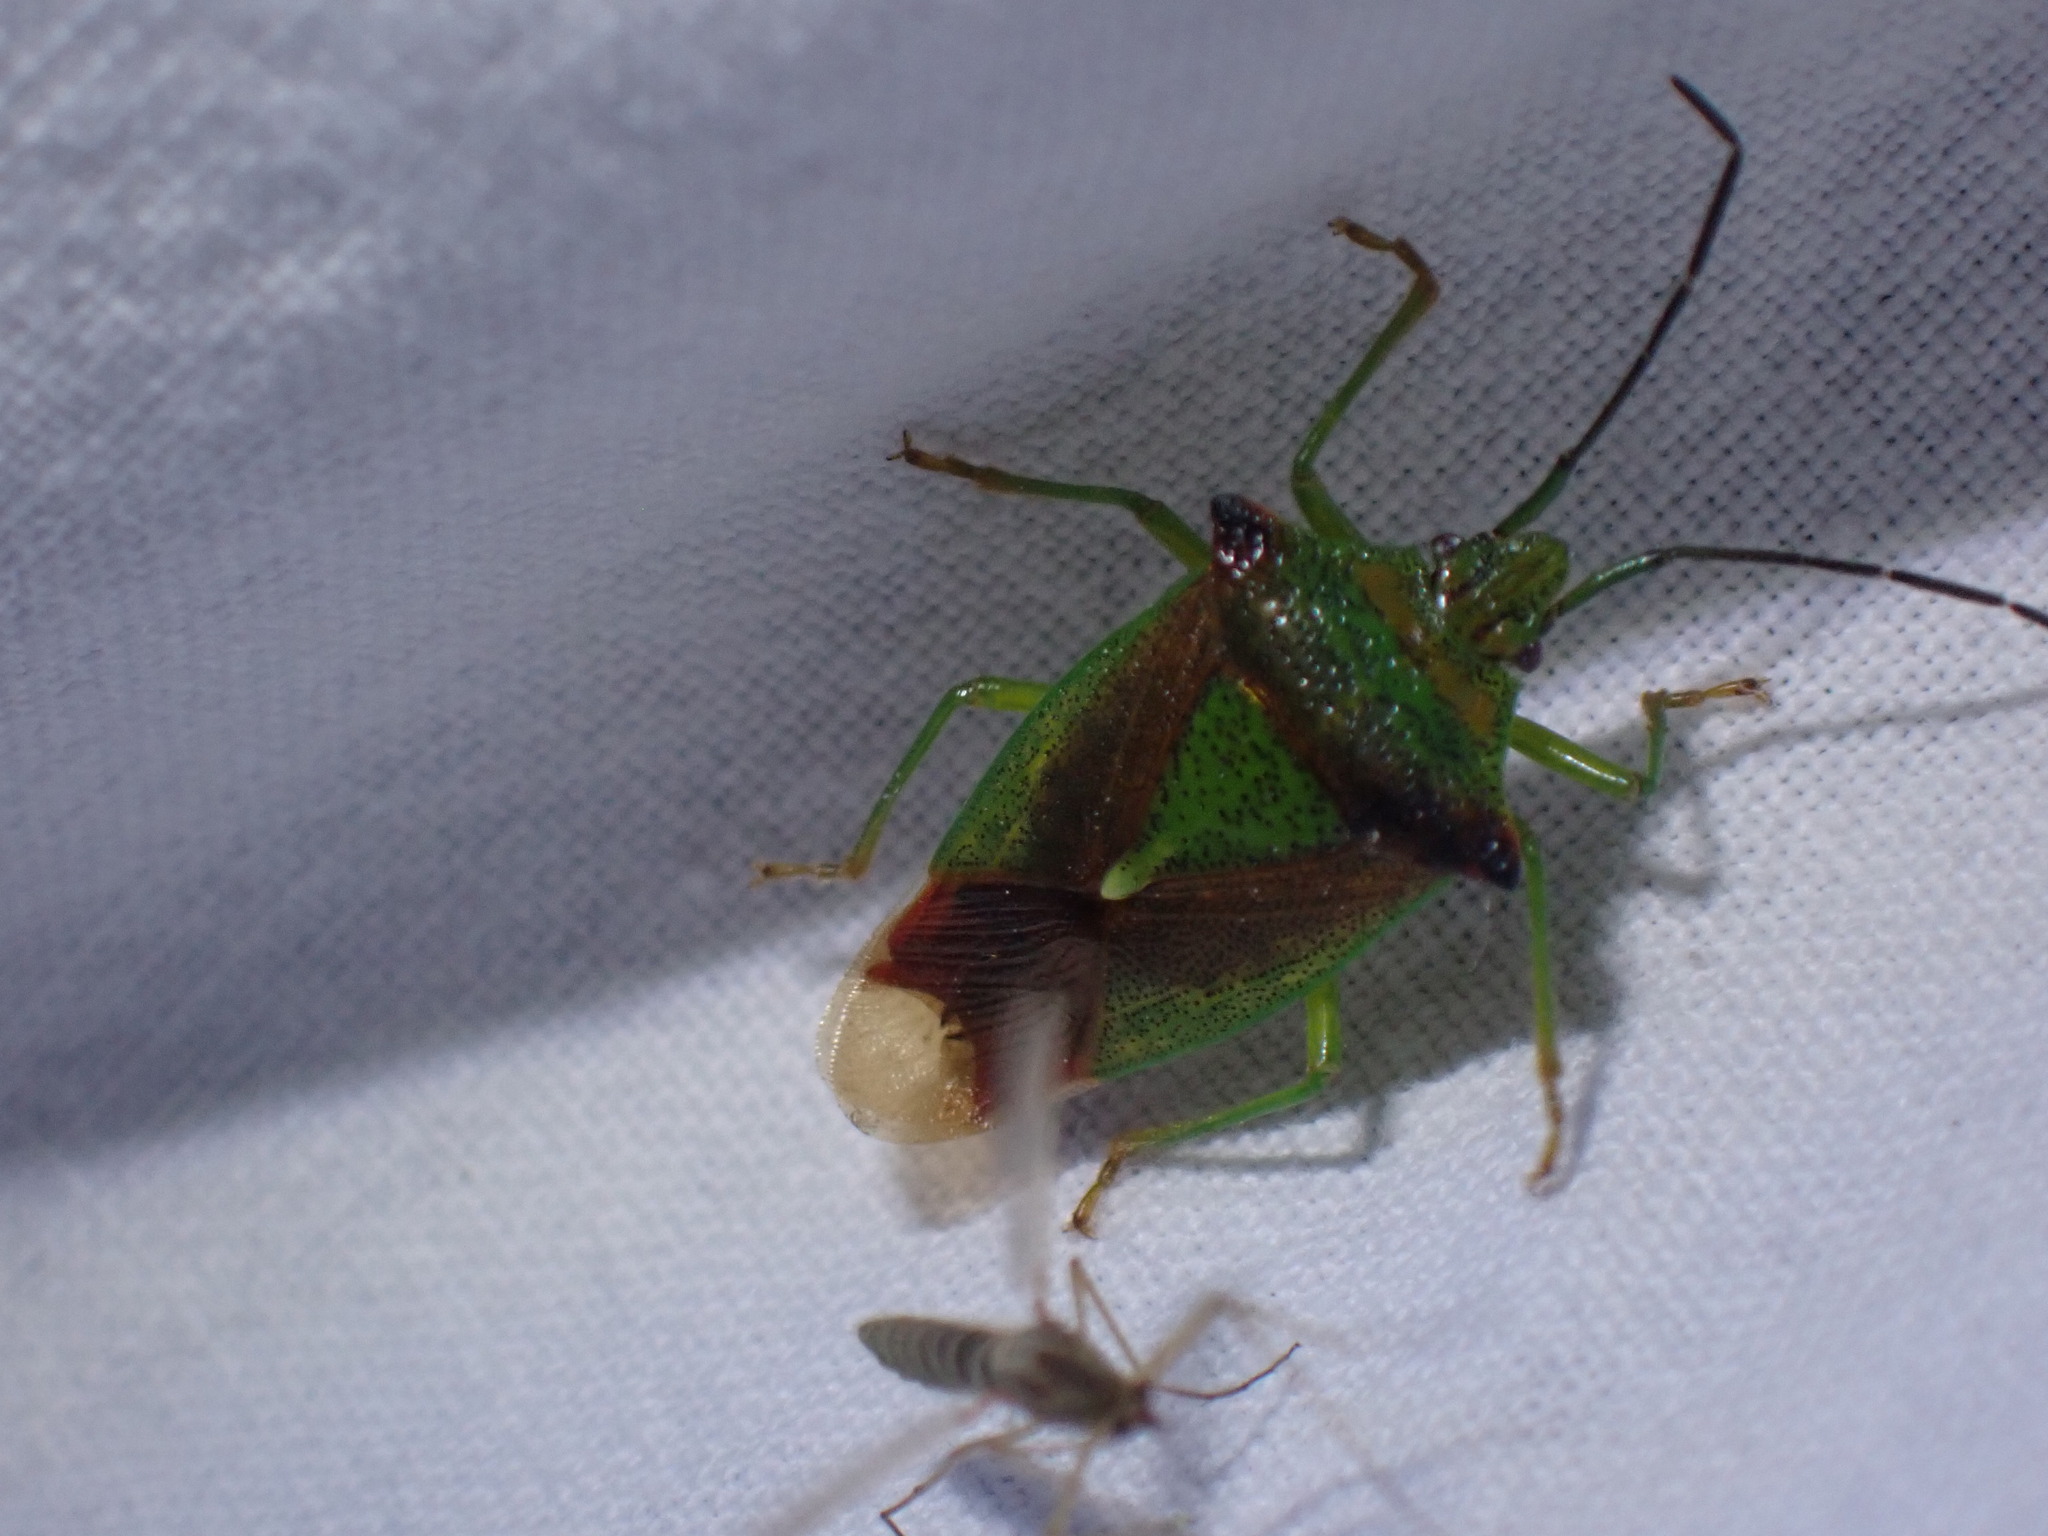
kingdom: Animalia
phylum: Arthropoda
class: Insecta
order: Hemiptera
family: Acanthosomatidae
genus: Acanthosoma
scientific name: Acanthosoma haemorrhoidale
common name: Hawthorn shieldbug
